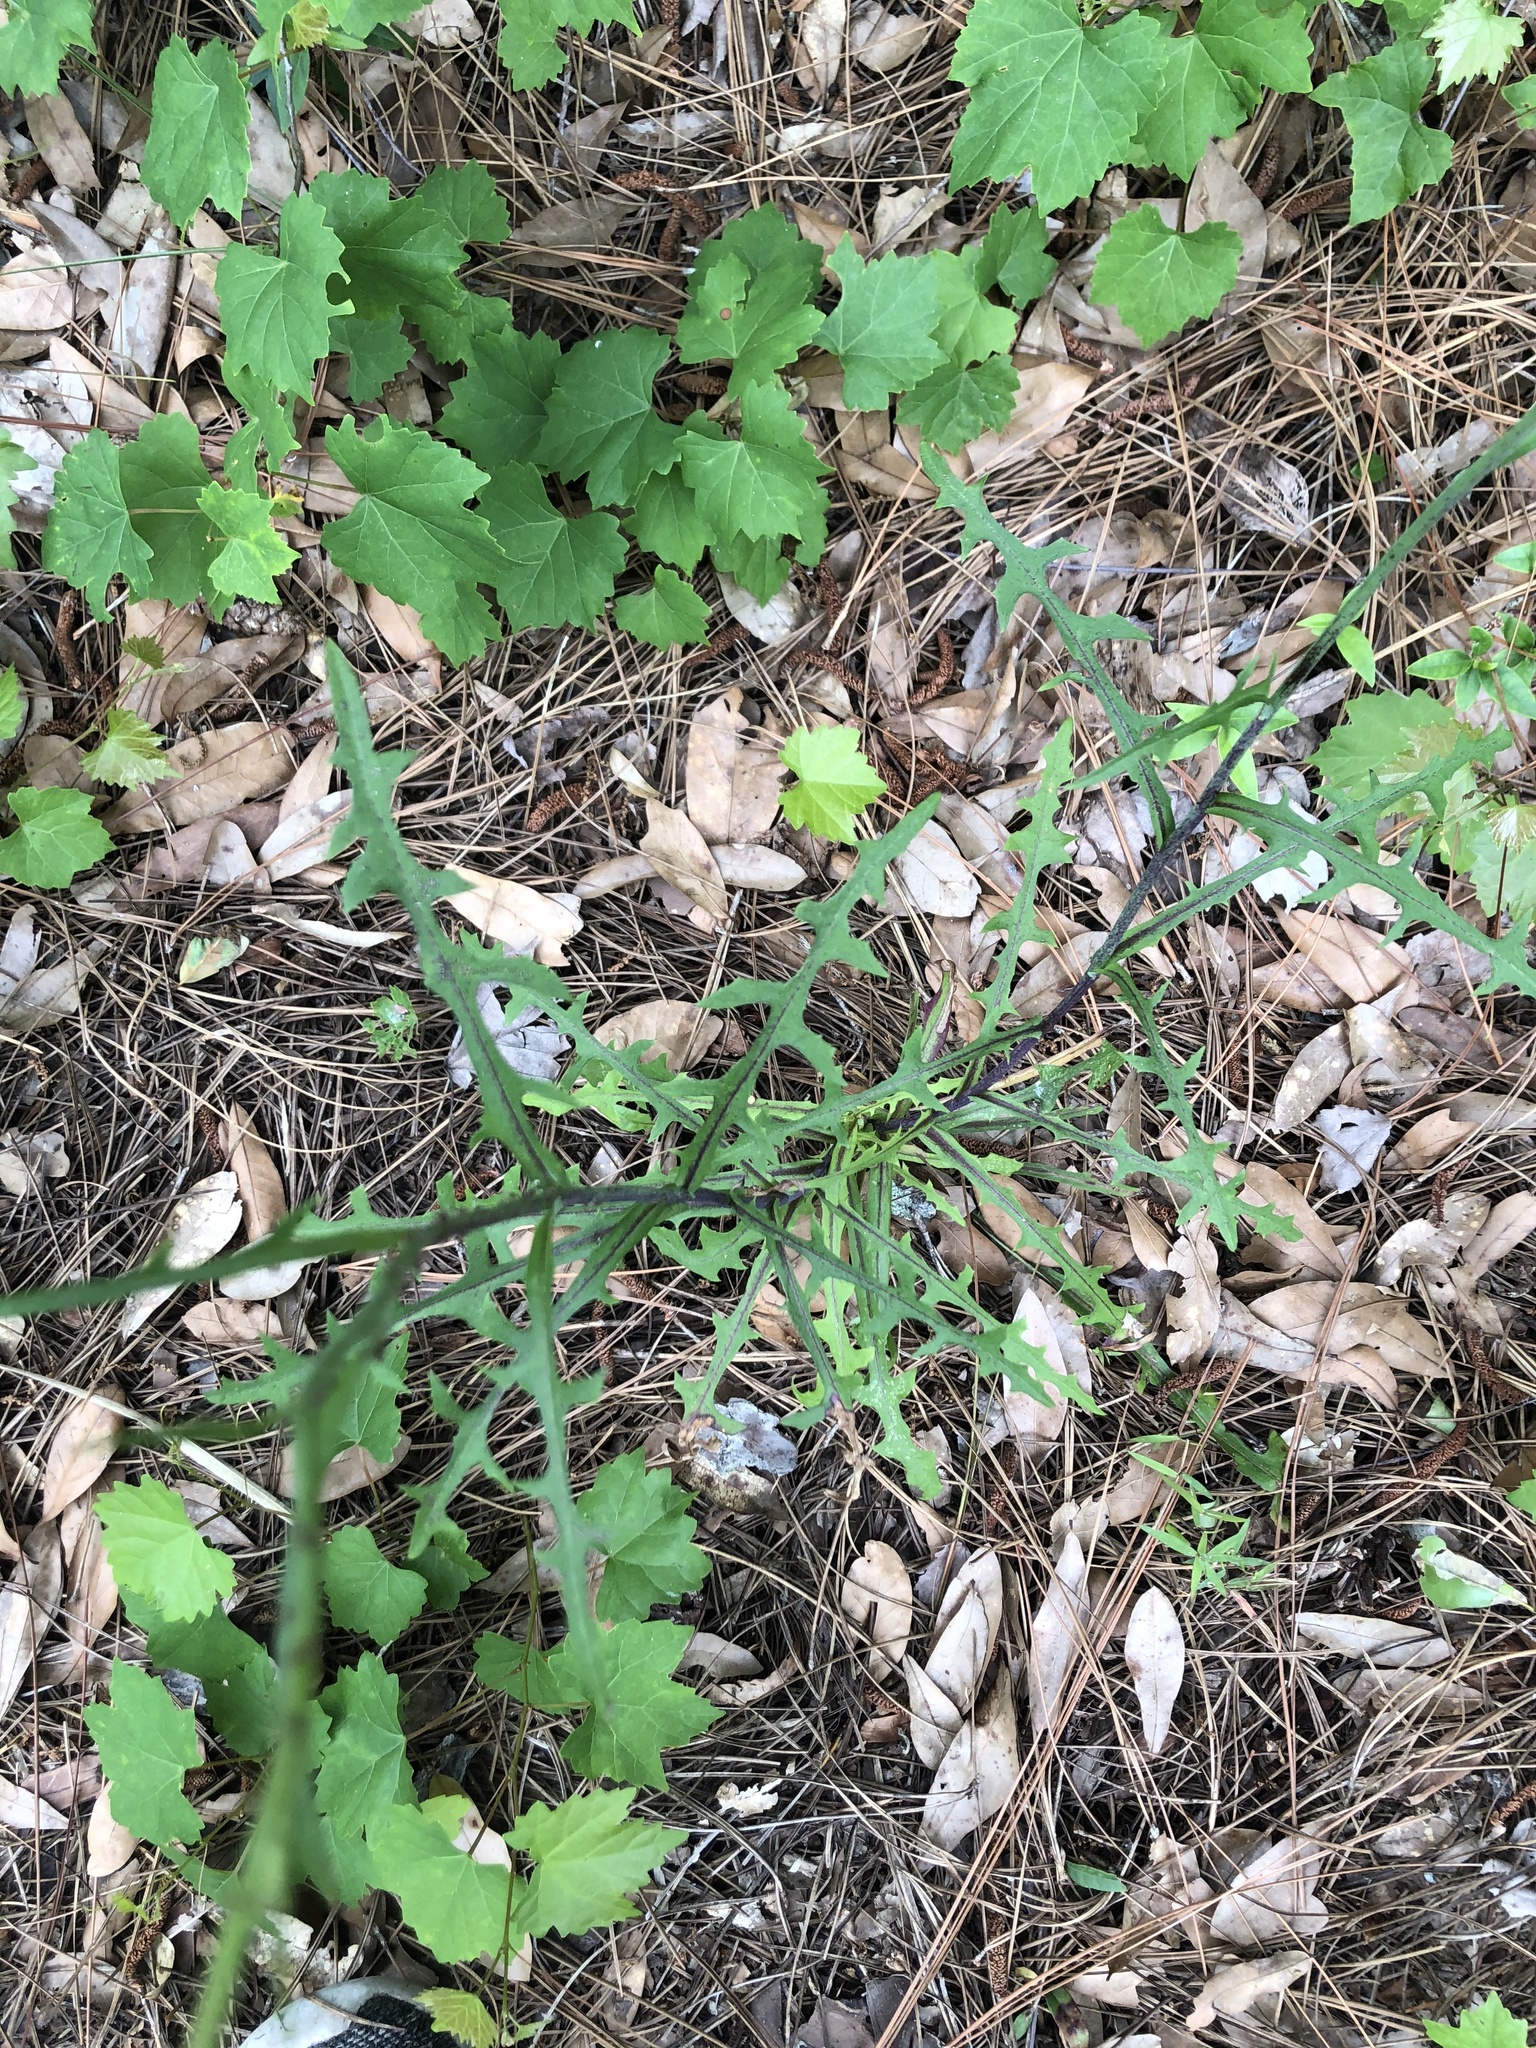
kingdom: Plantae
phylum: Tracheophyta
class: Magnoliopsida
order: Asterales
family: Asteraceae
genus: Lactuca
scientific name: Lactuca graminifolia
